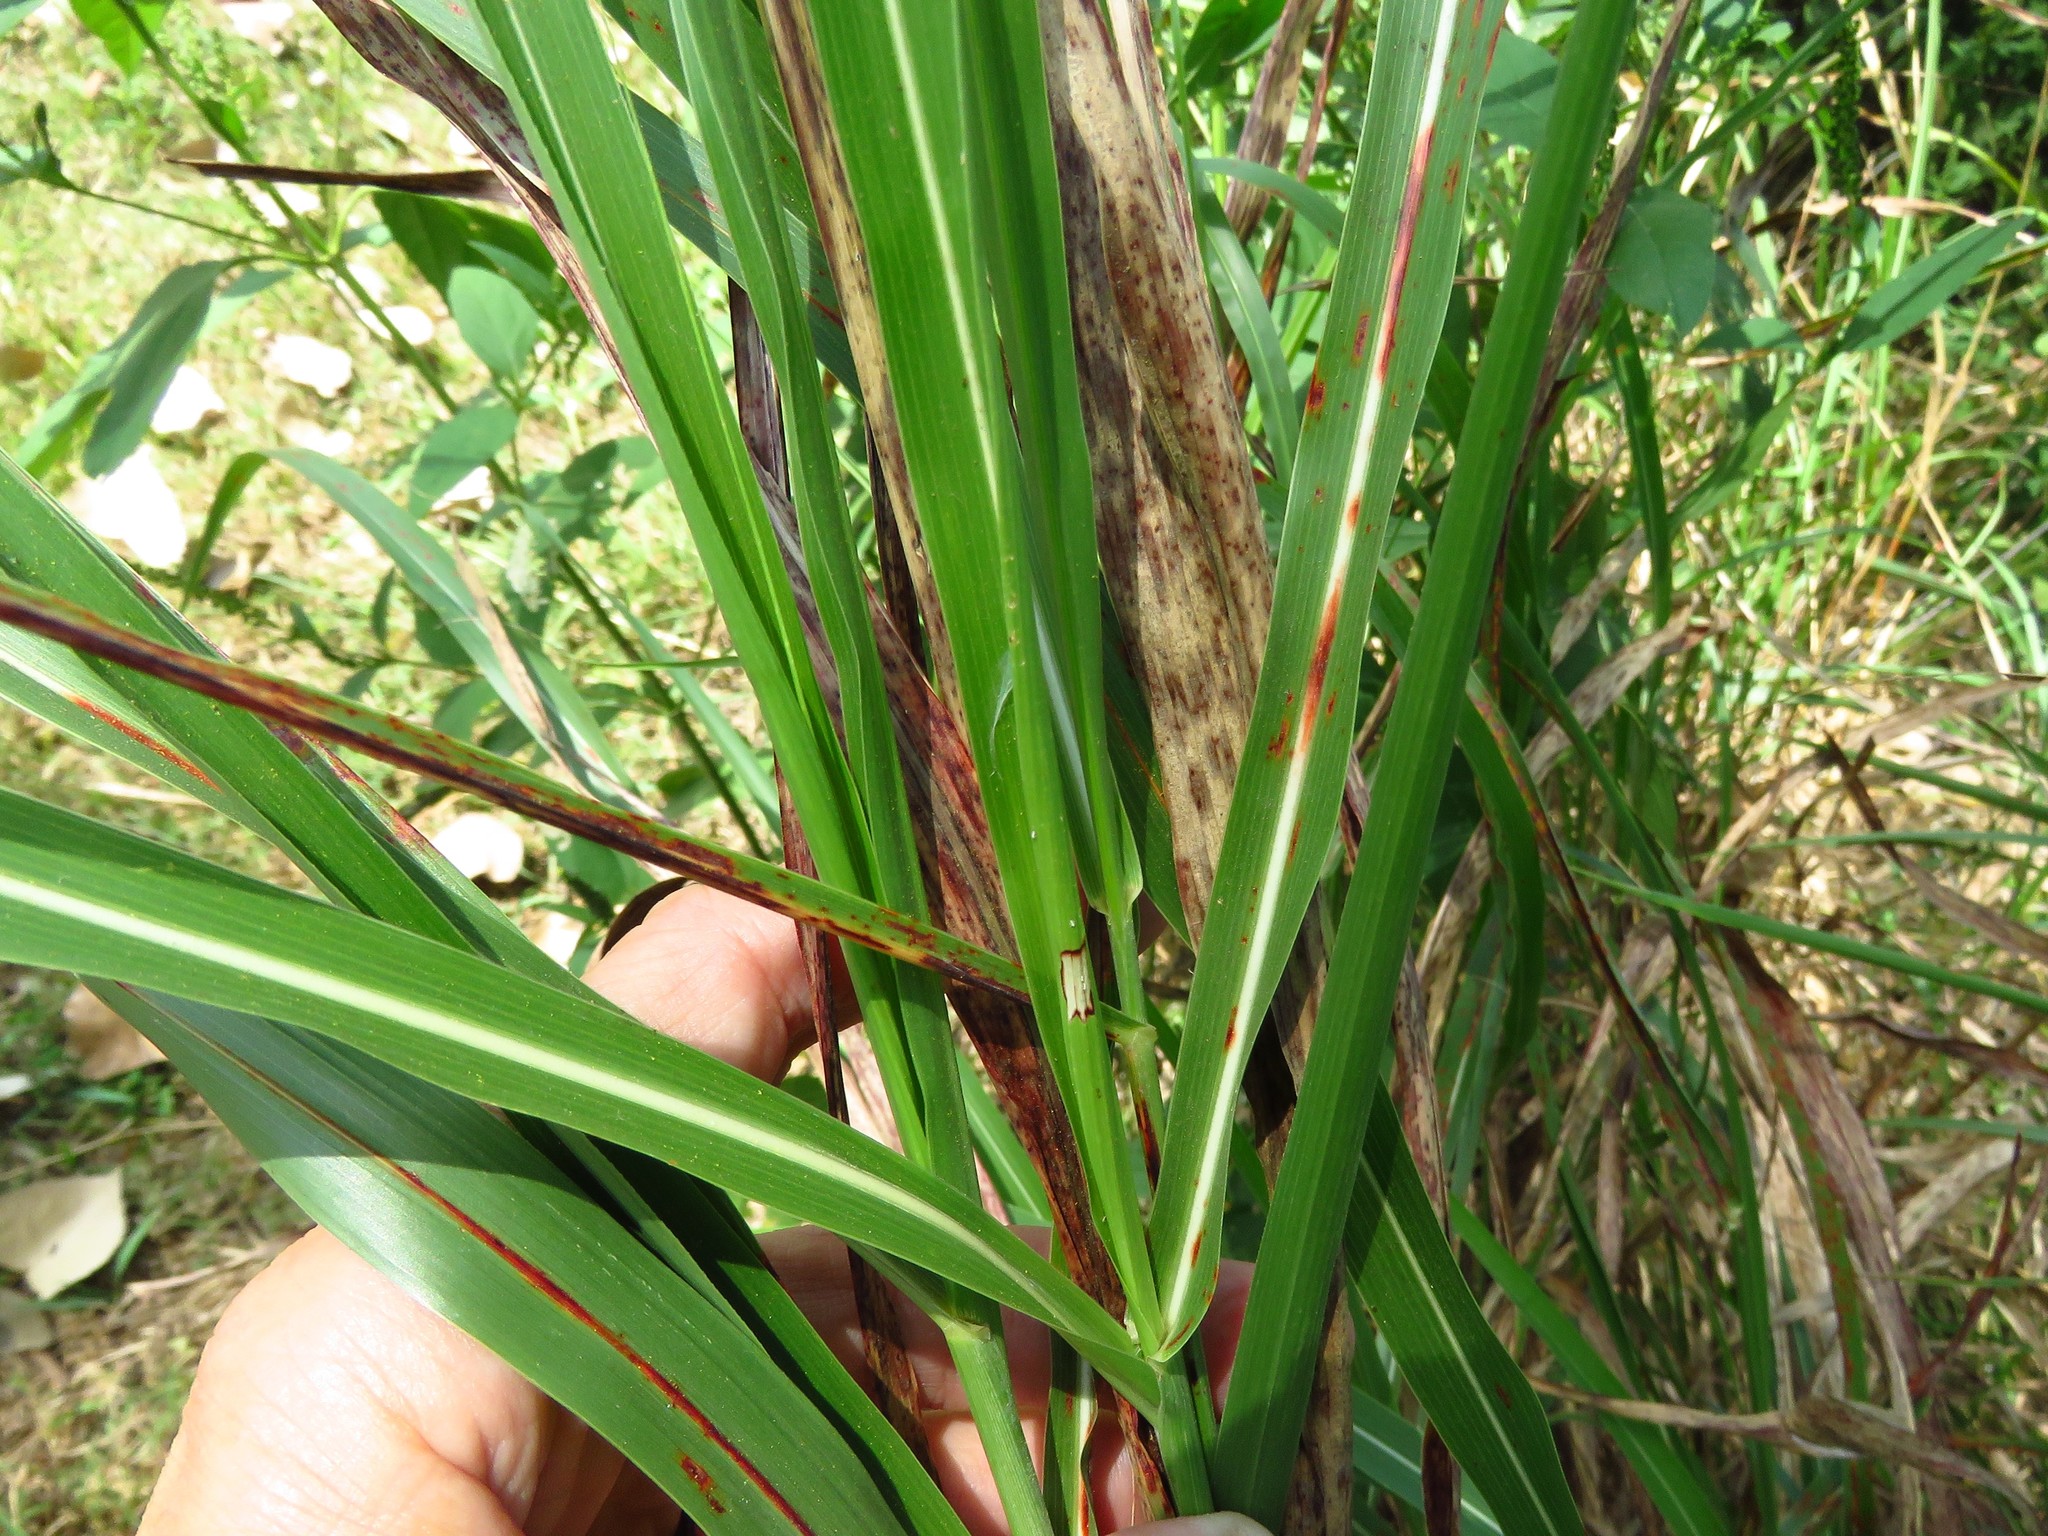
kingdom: Plantae
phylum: Tracheophyta
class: Liliopsida
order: Poales
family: Poaceae
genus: Sorghum
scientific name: Sorghum halepense
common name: Johnson-grass
